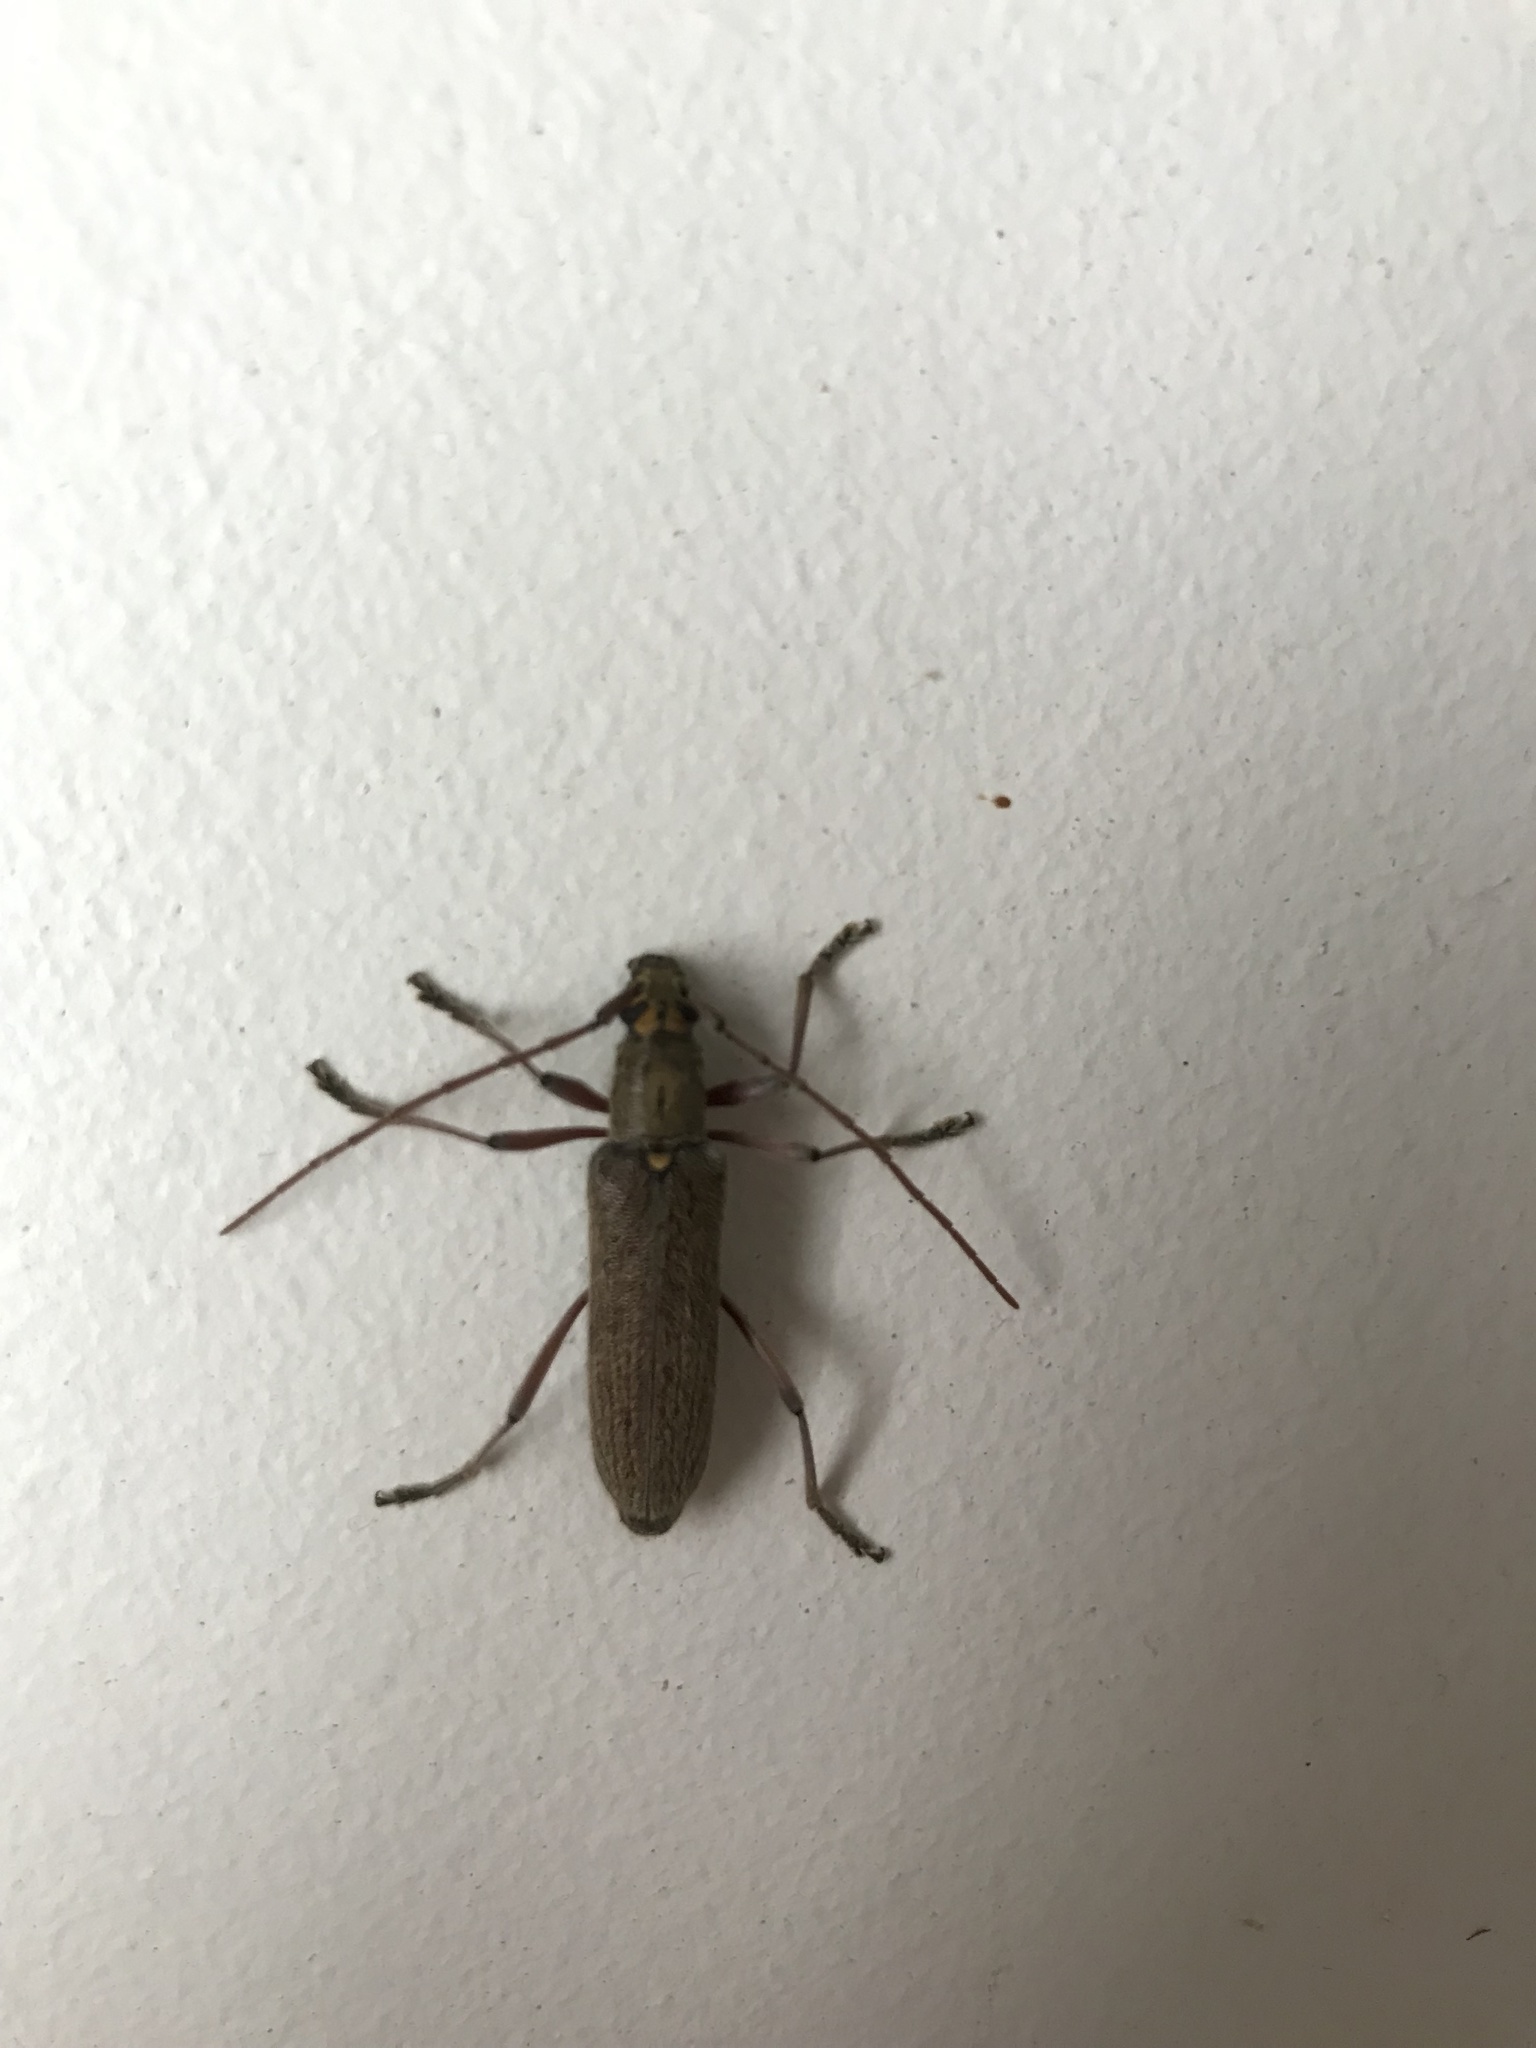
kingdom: Animalia
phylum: Arthropoda
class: Insecta
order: Coleoptera
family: Cerambycidae
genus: Oemona
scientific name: Oemona hirta
